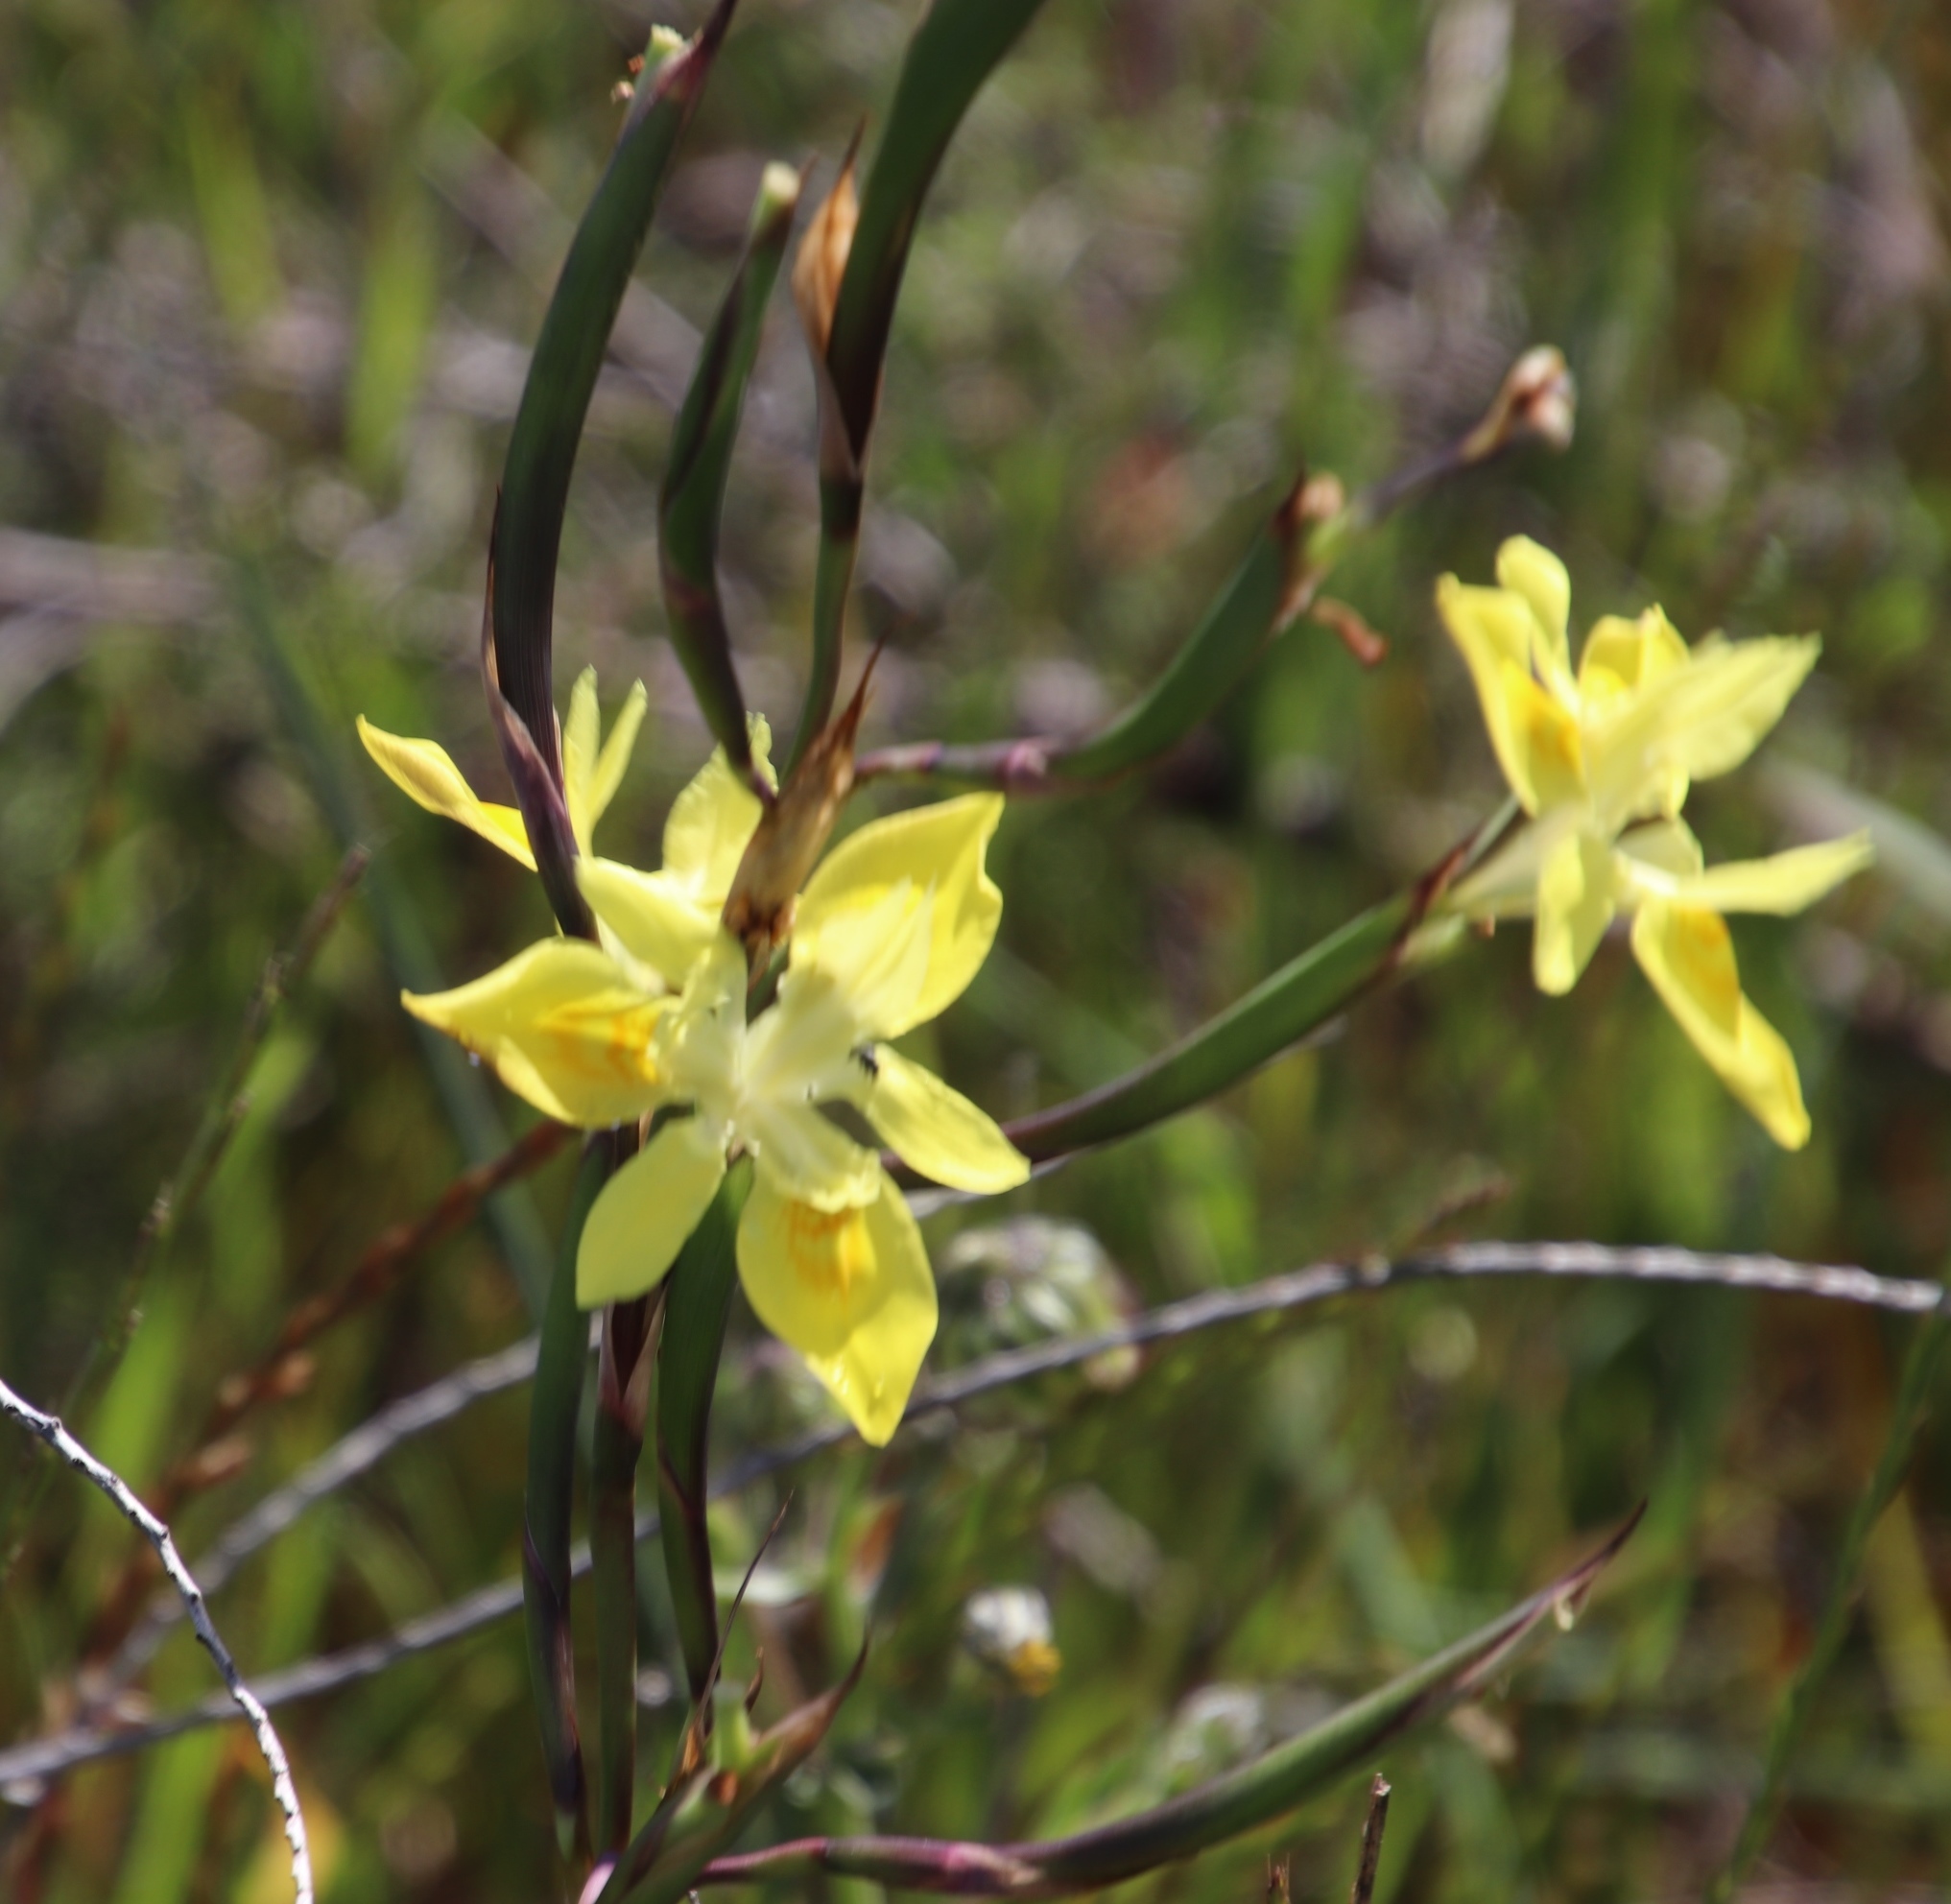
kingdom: Plantae
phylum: Tracheophyta
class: Liliopsida
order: Asparagales
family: Iridaceae
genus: Moraea
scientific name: Moraea neglecta
